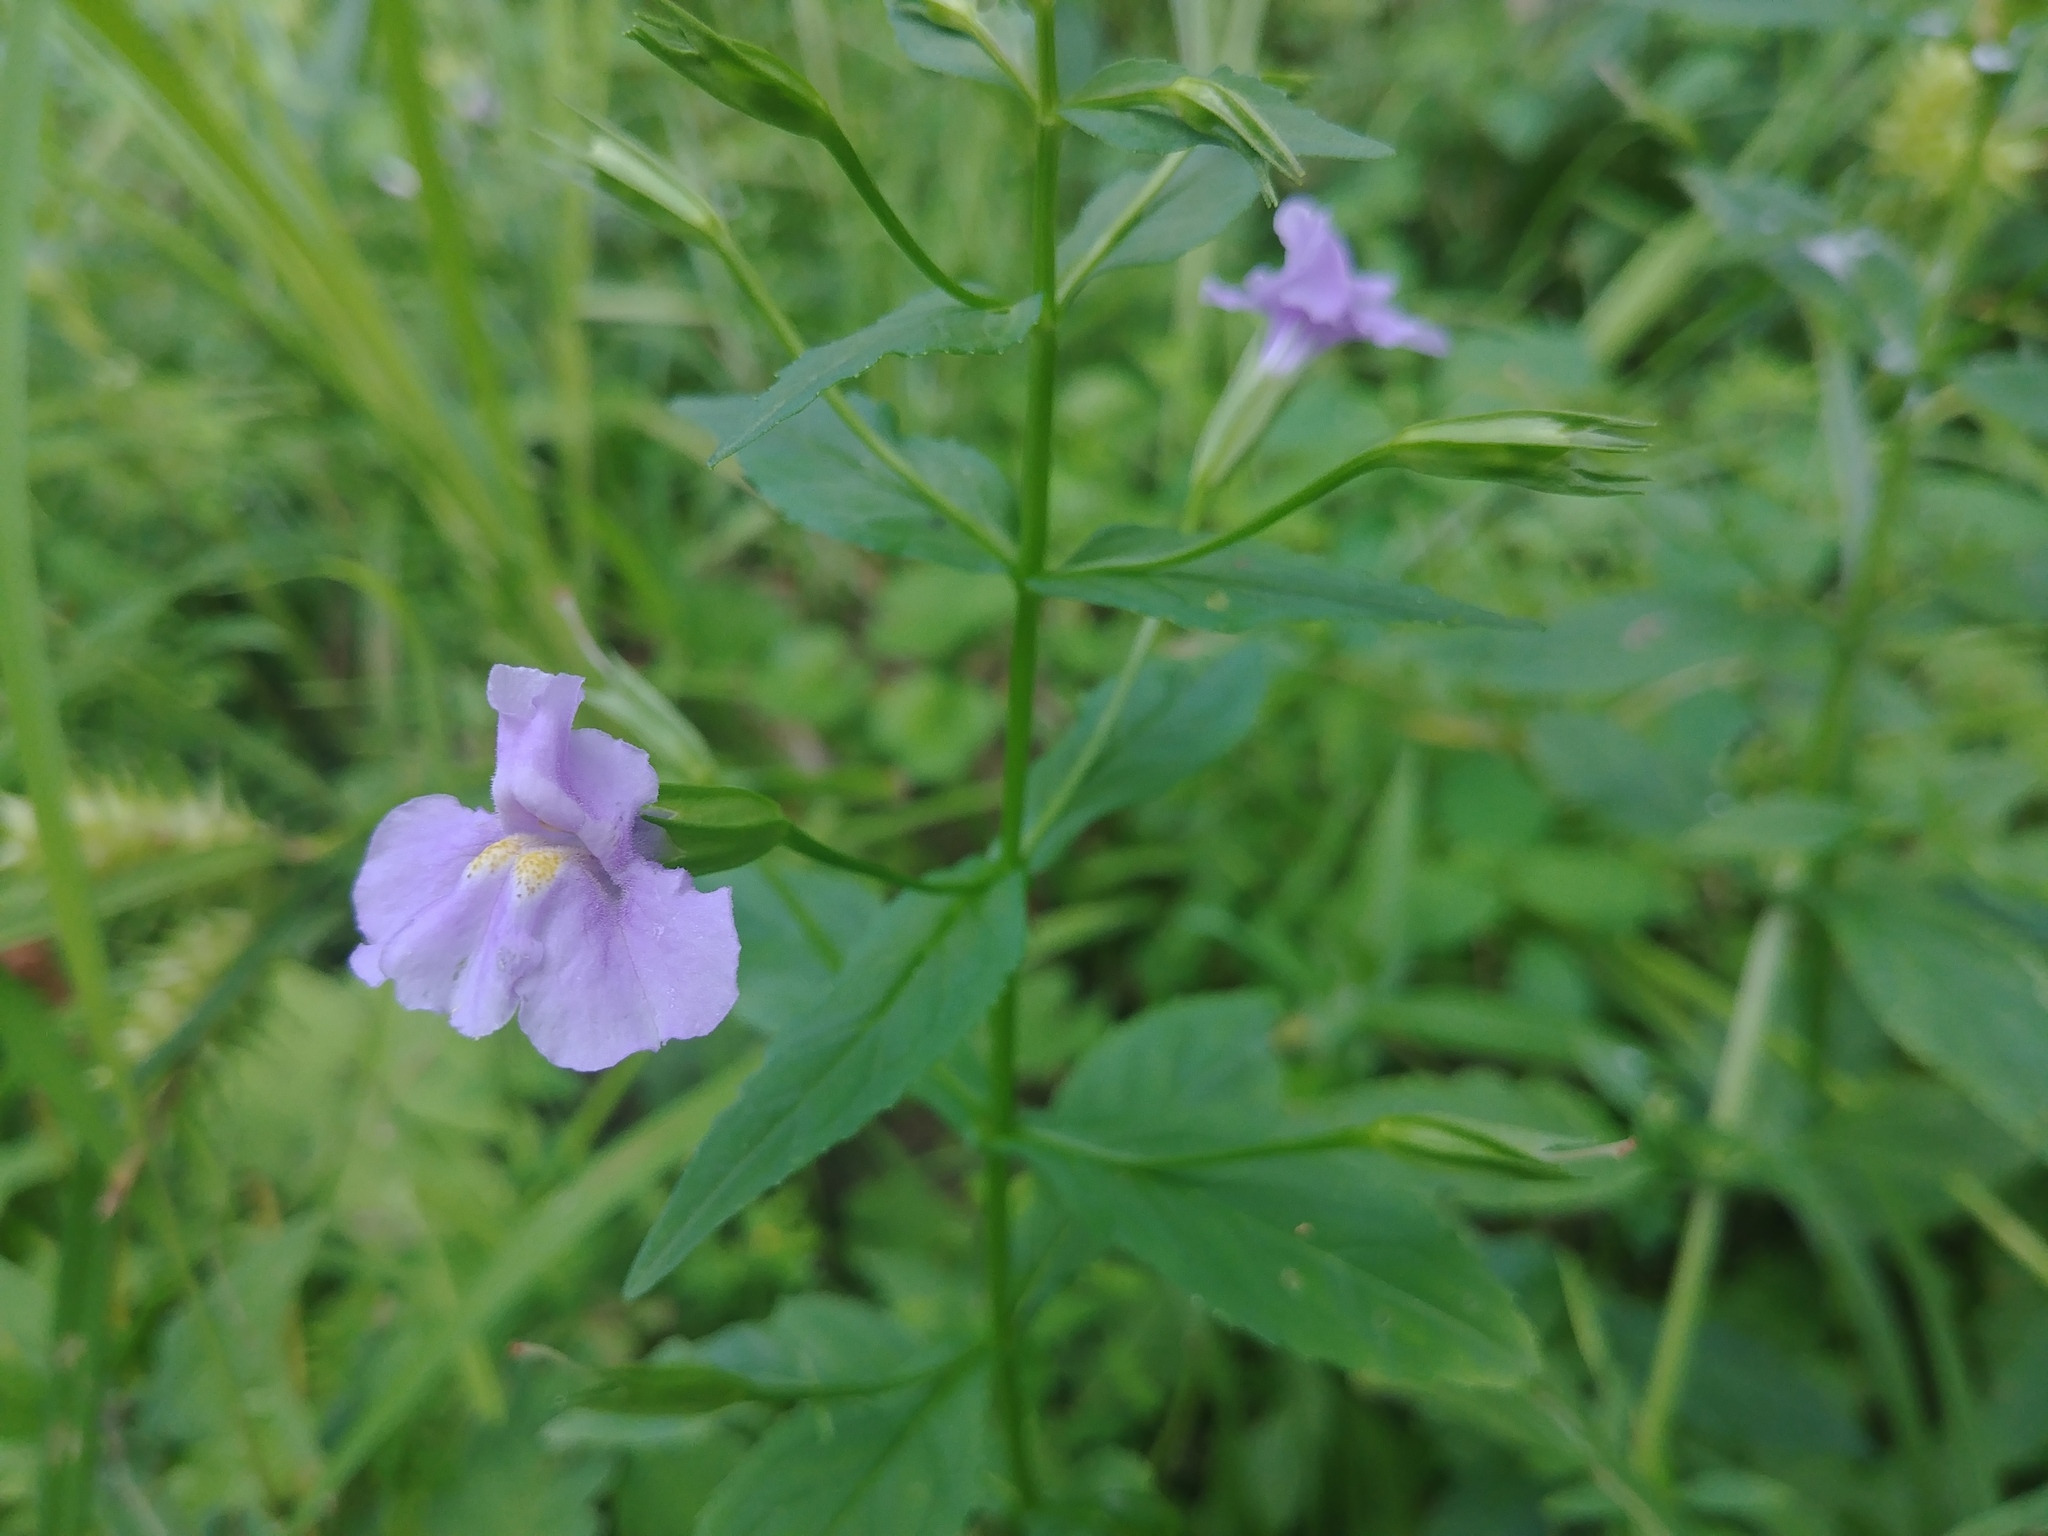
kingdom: Plantae
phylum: Tracheophyta
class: Magnoliopsida
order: Lamiales
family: Phrymaceae
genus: Mimulus
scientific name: Mimulus ringens
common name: Allegheny monkeyflower
